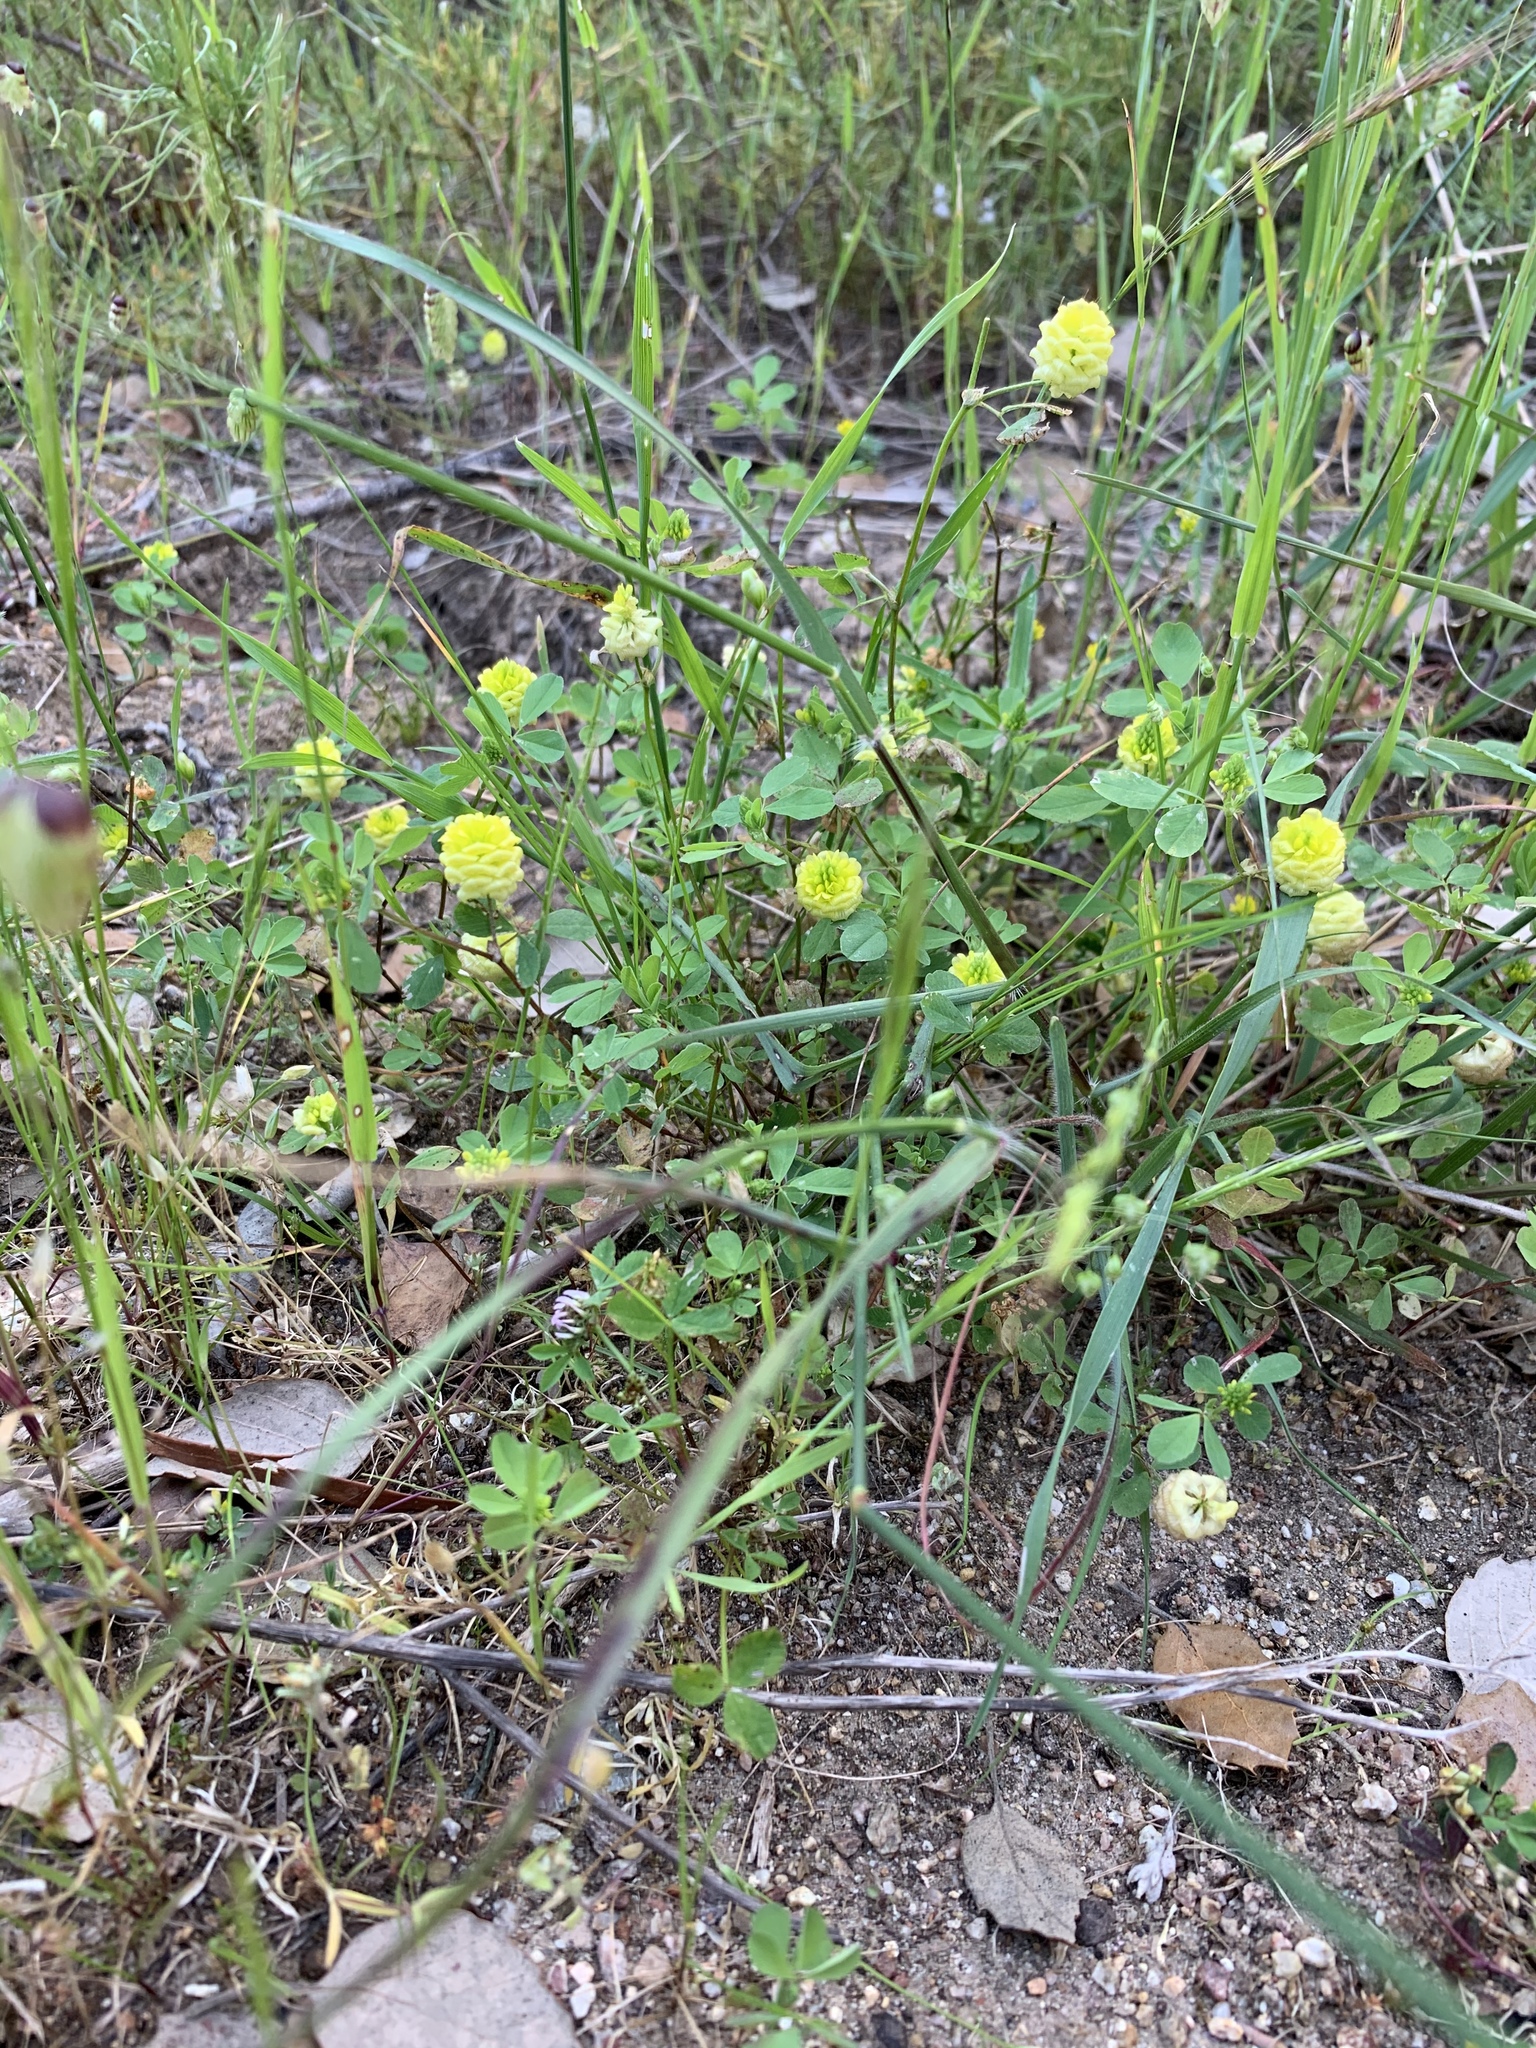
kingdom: Plantae
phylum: Tracheophyta
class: Magnoliopsida
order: Fabales
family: Fabaceae
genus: Trifolium
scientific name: Trifolium campestre
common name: Field clover
